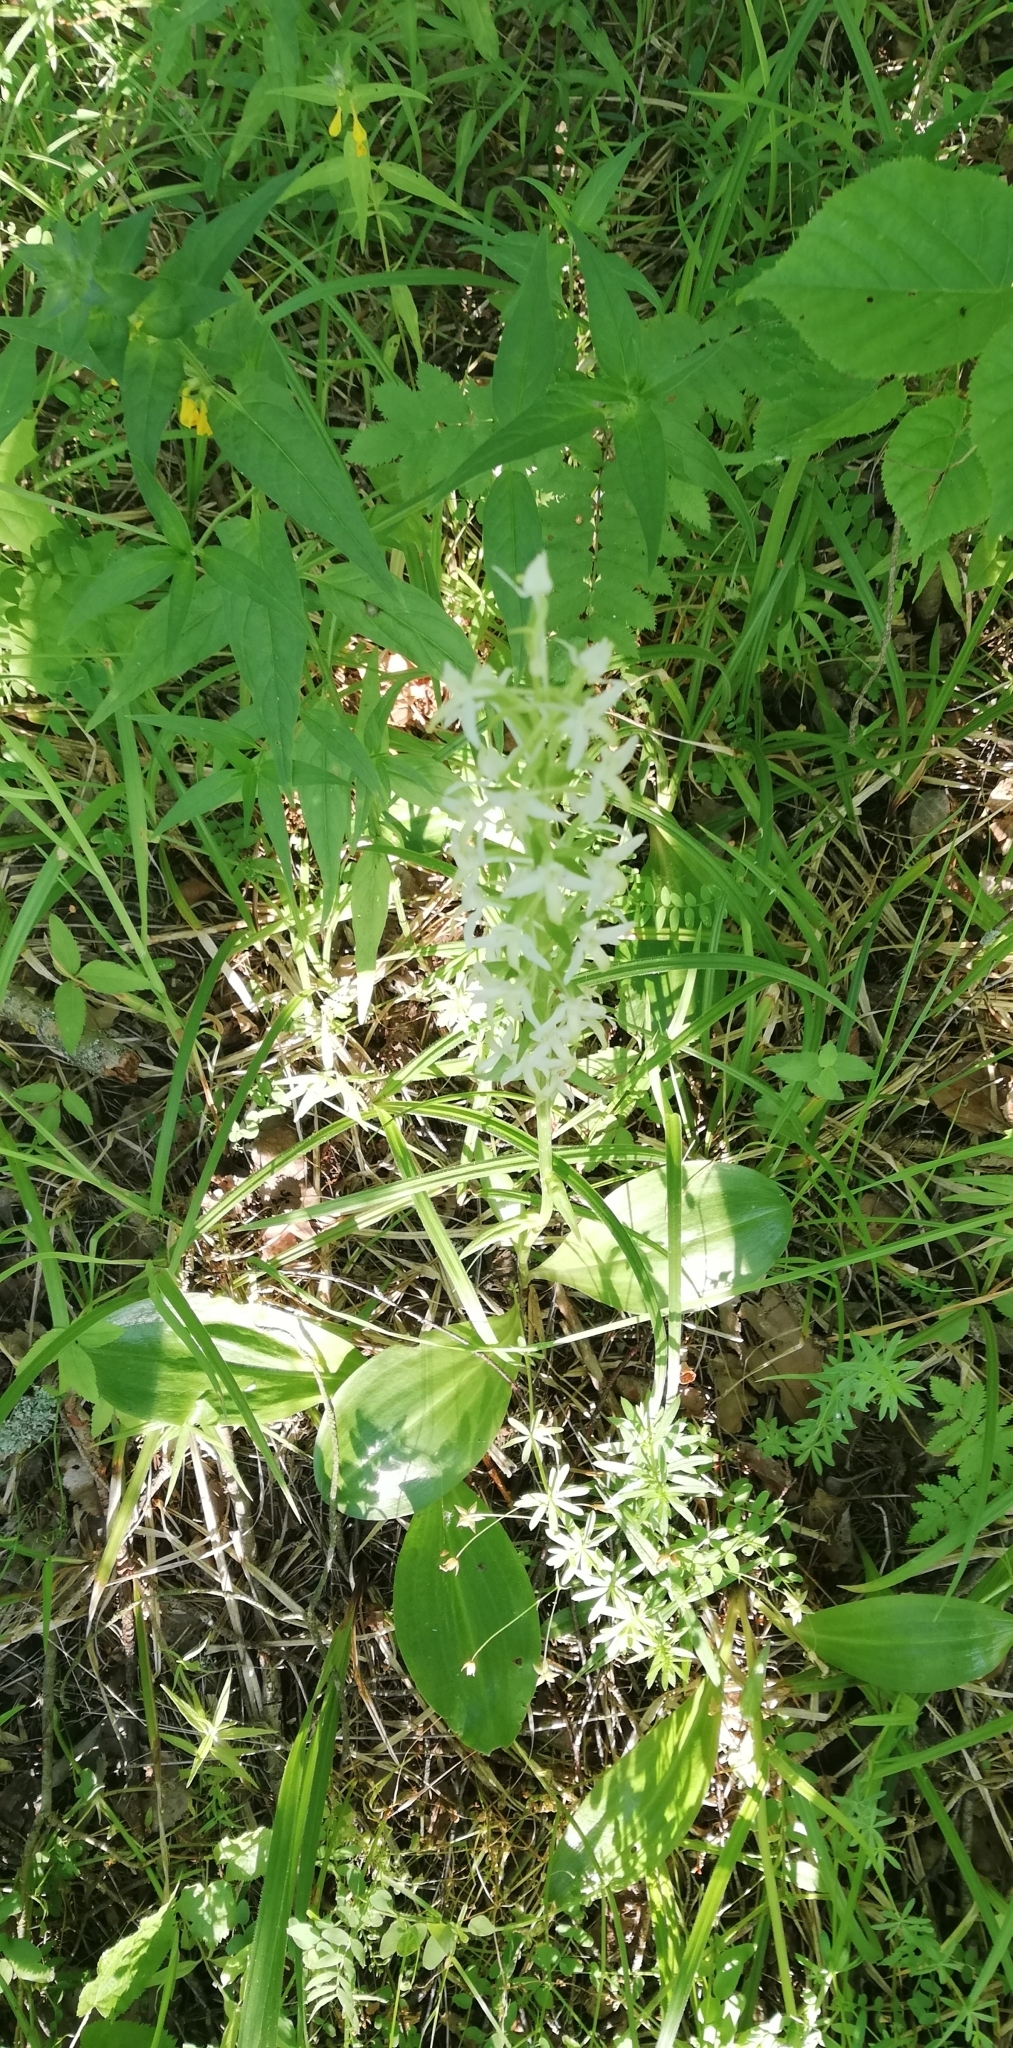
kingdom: Plantae
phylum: Tracheophyta
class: Liliopsida
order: Asparagales
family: Orchidaceae
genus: Platanthera
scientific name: Platanthera bifolia
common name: Lesser butterfly-orchid
